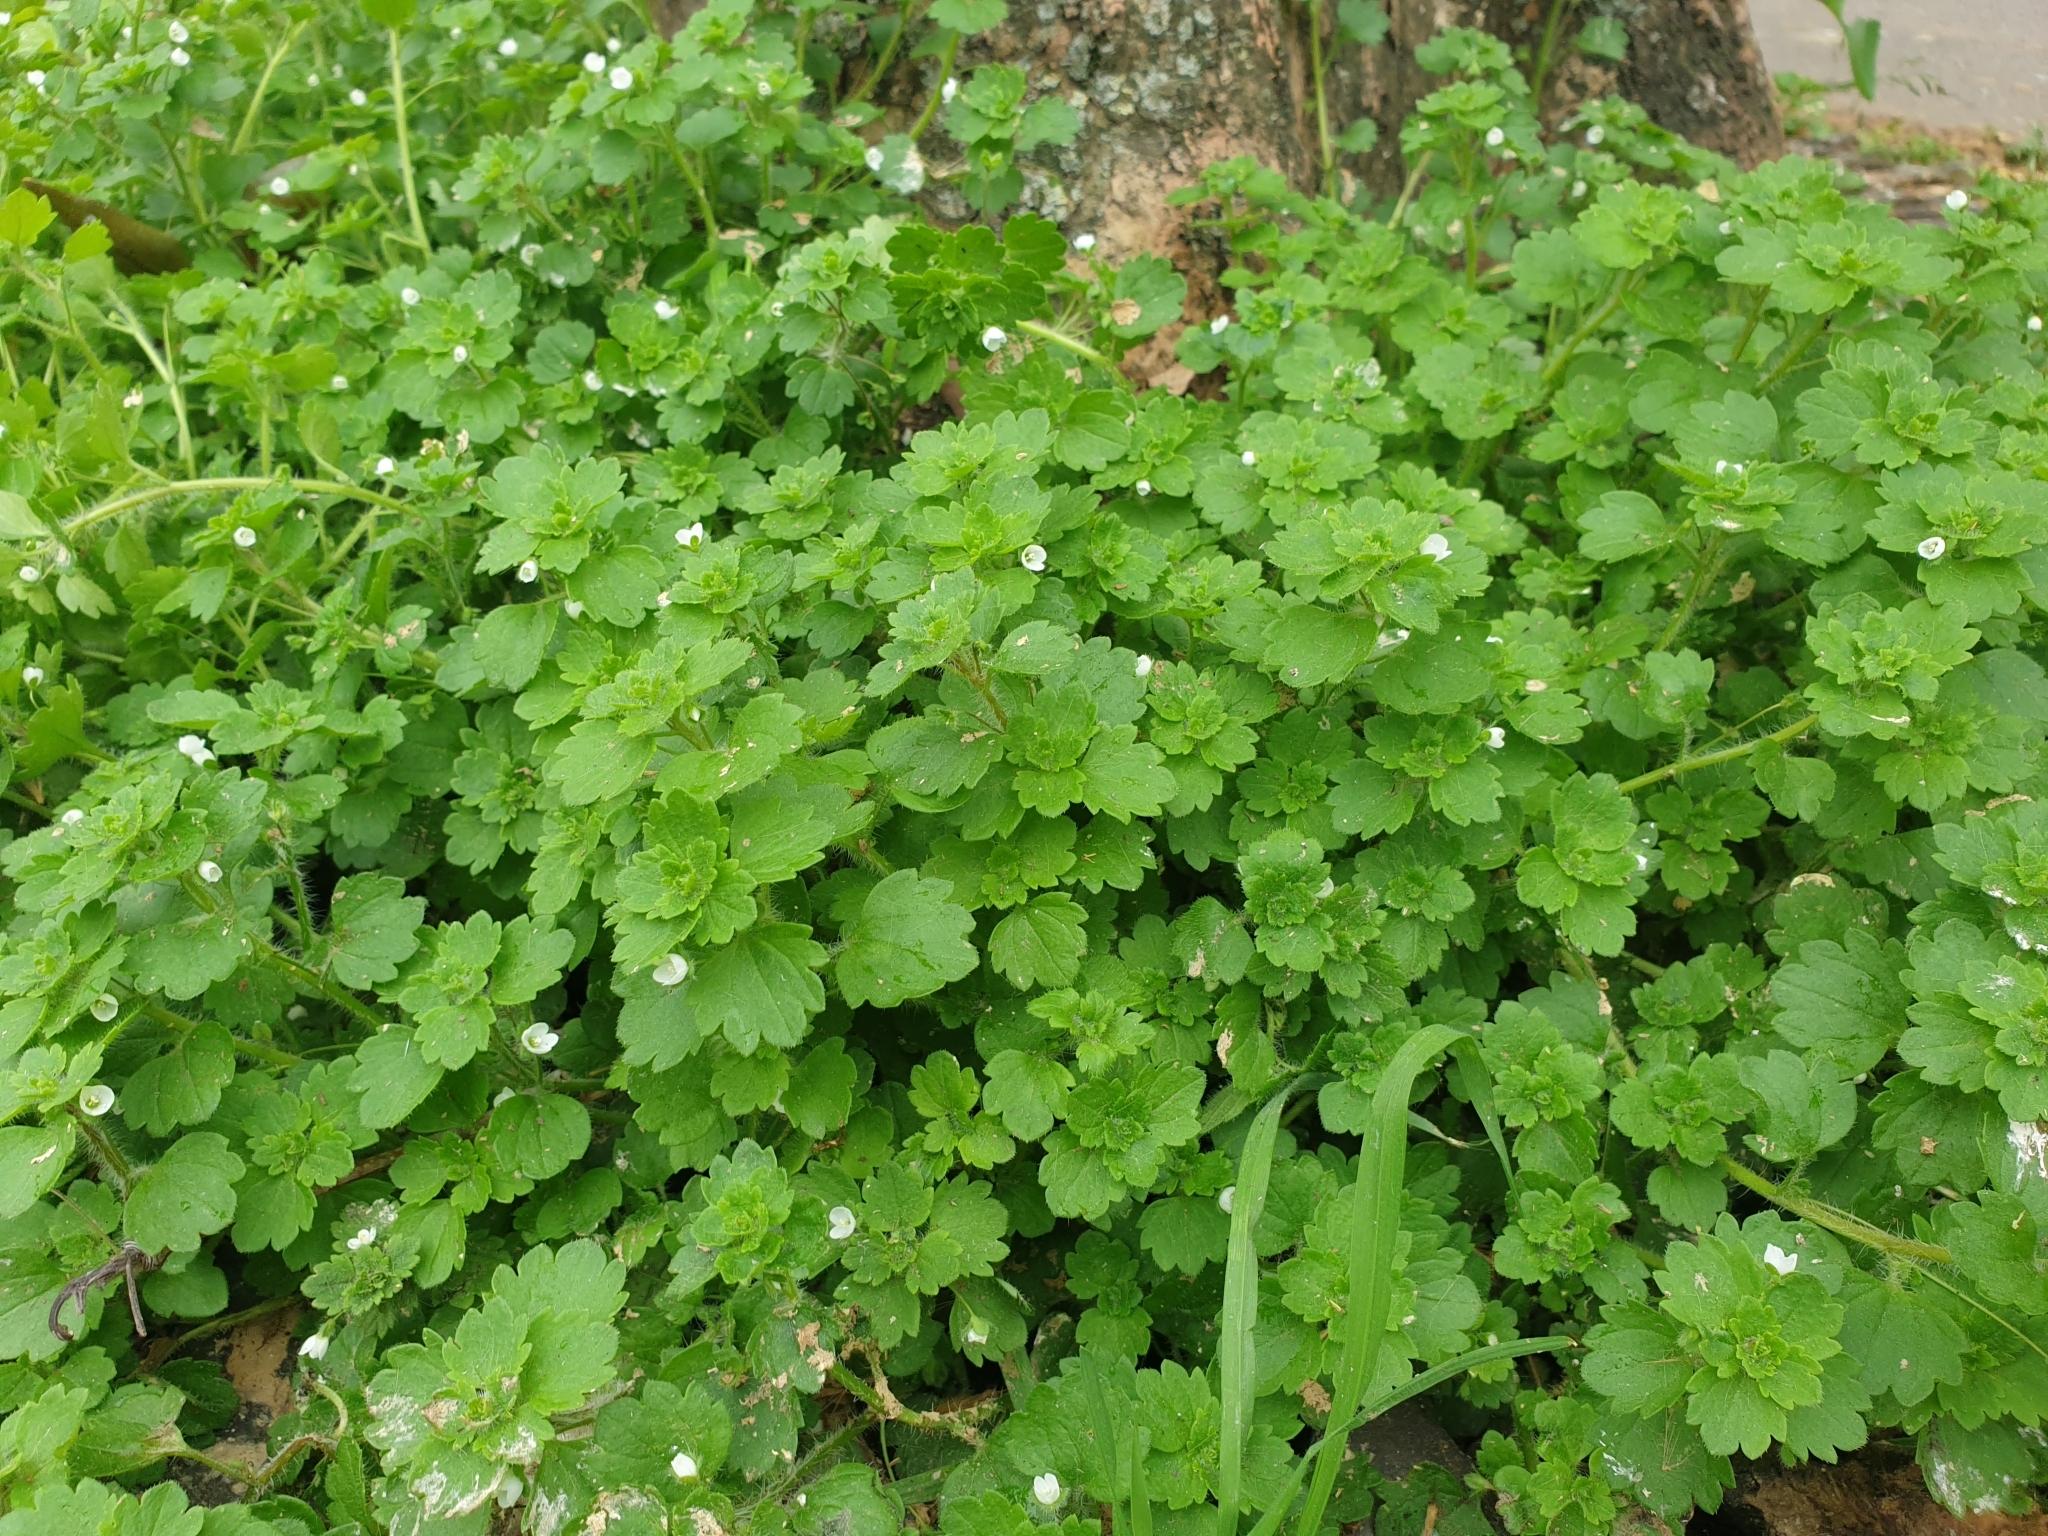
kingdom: Plantae
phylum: Tracheophyta
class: Magnoliopsida
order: Lamiales
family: Plantaginaceae
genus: Veronica
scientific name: Veronica cymbalaria
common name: Pale speedwell
